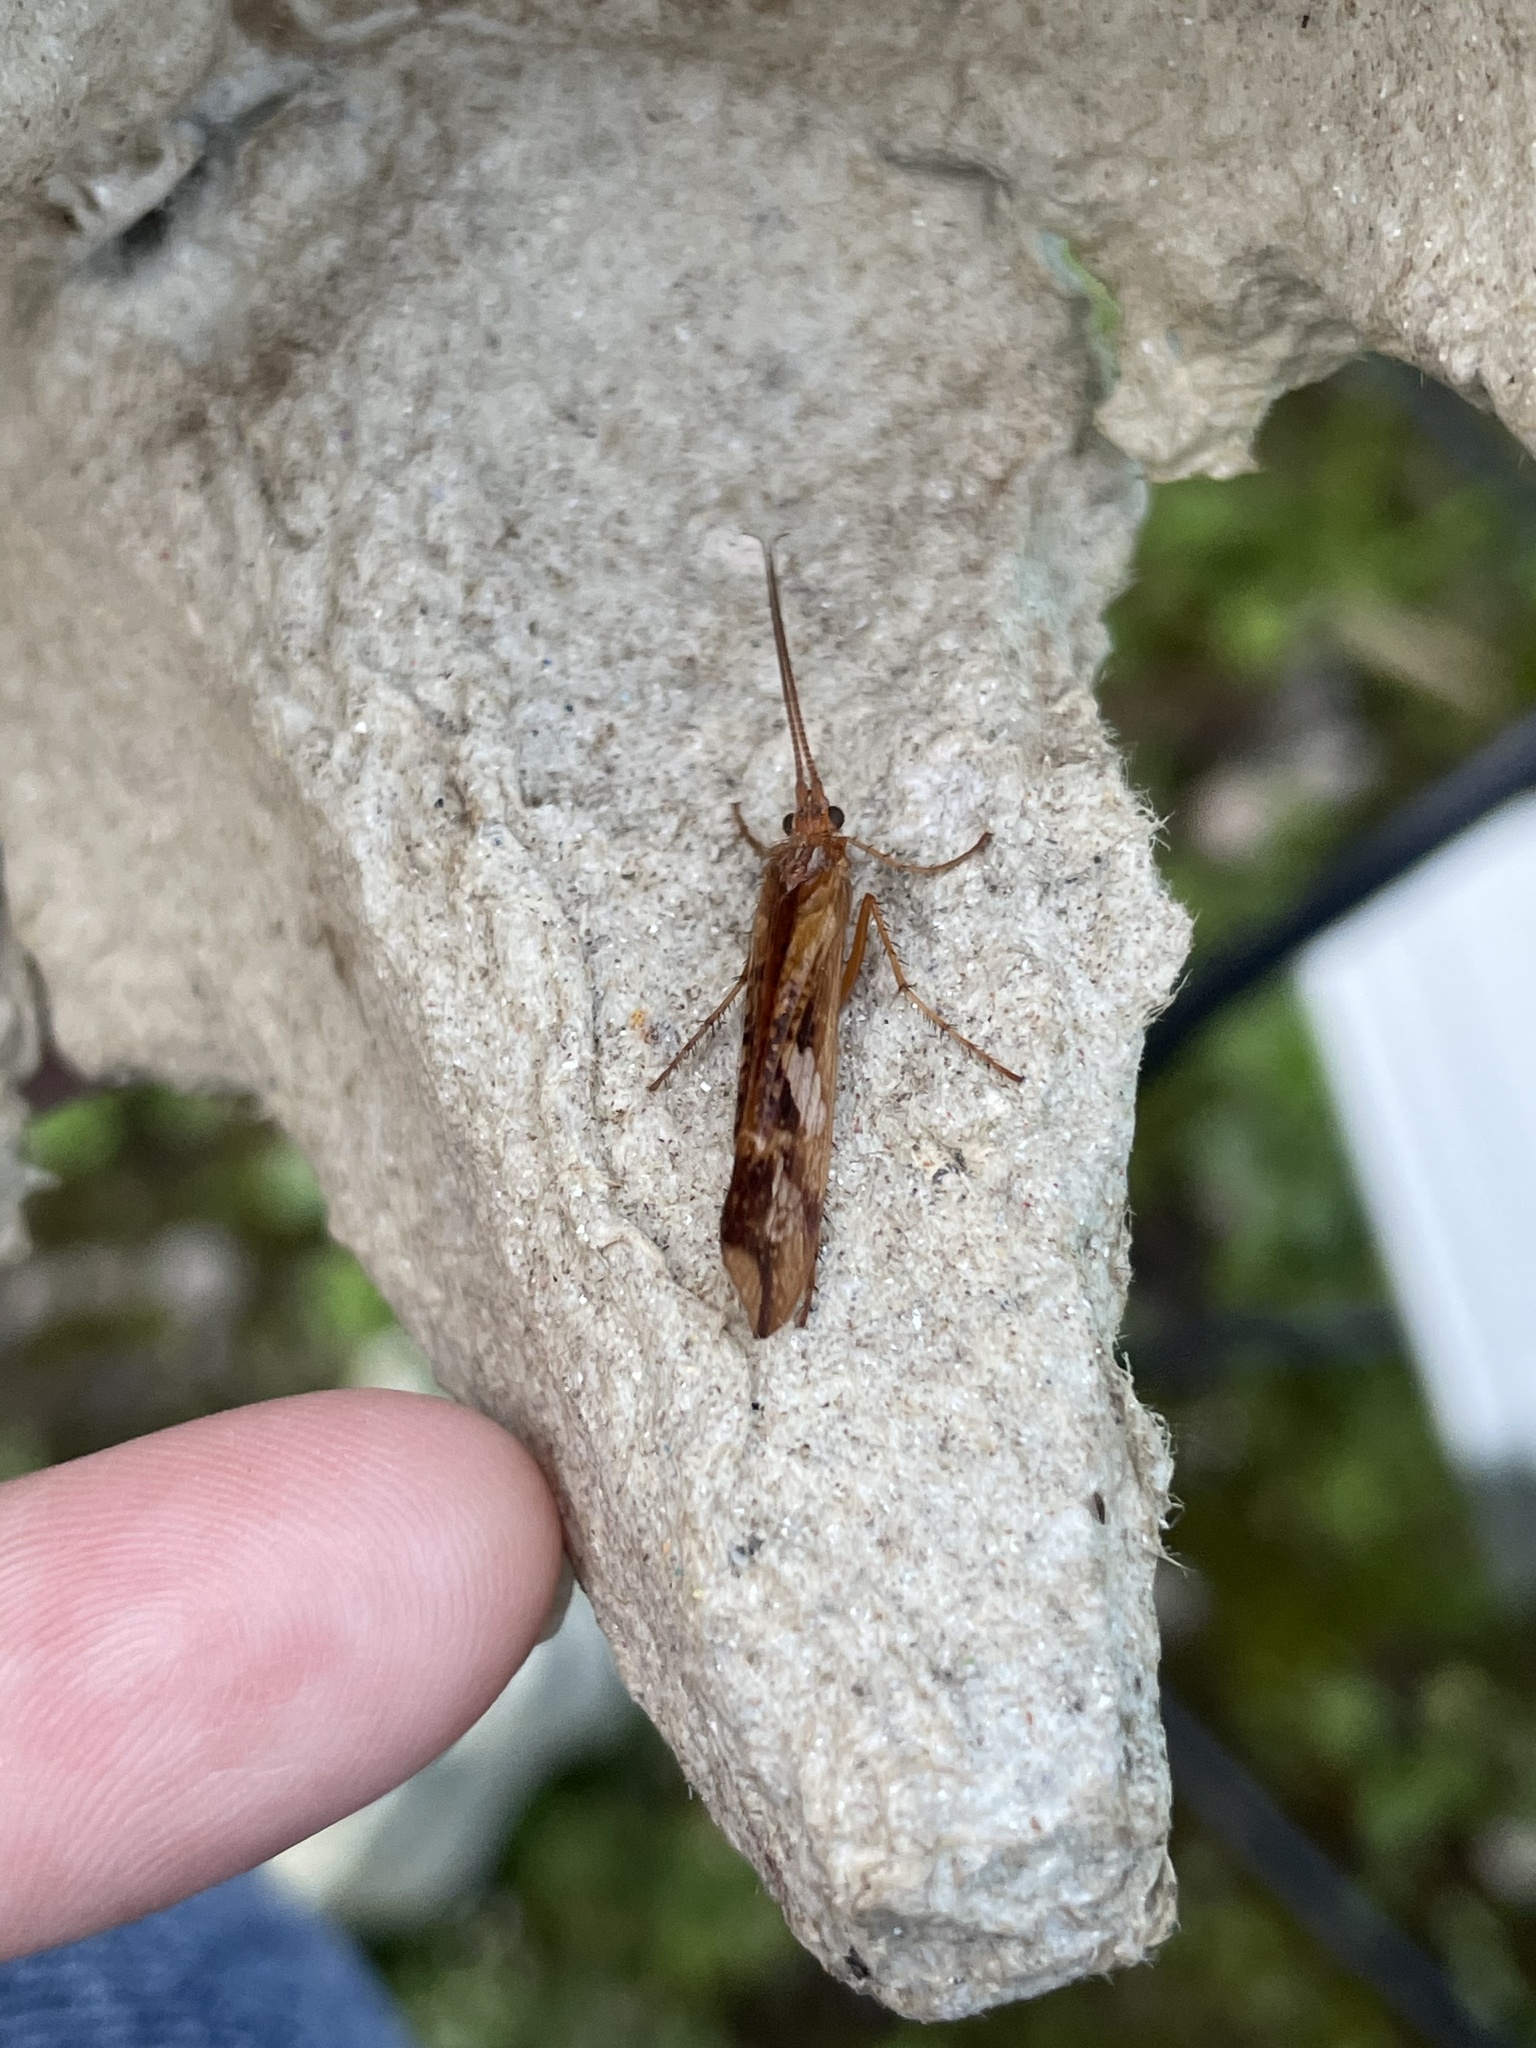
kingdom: Animalia
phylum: Arthropoda
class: Insecta
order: Trichoptera
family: Limnephilidae
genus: Limnephilus
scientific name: Limnephilus lunatus
